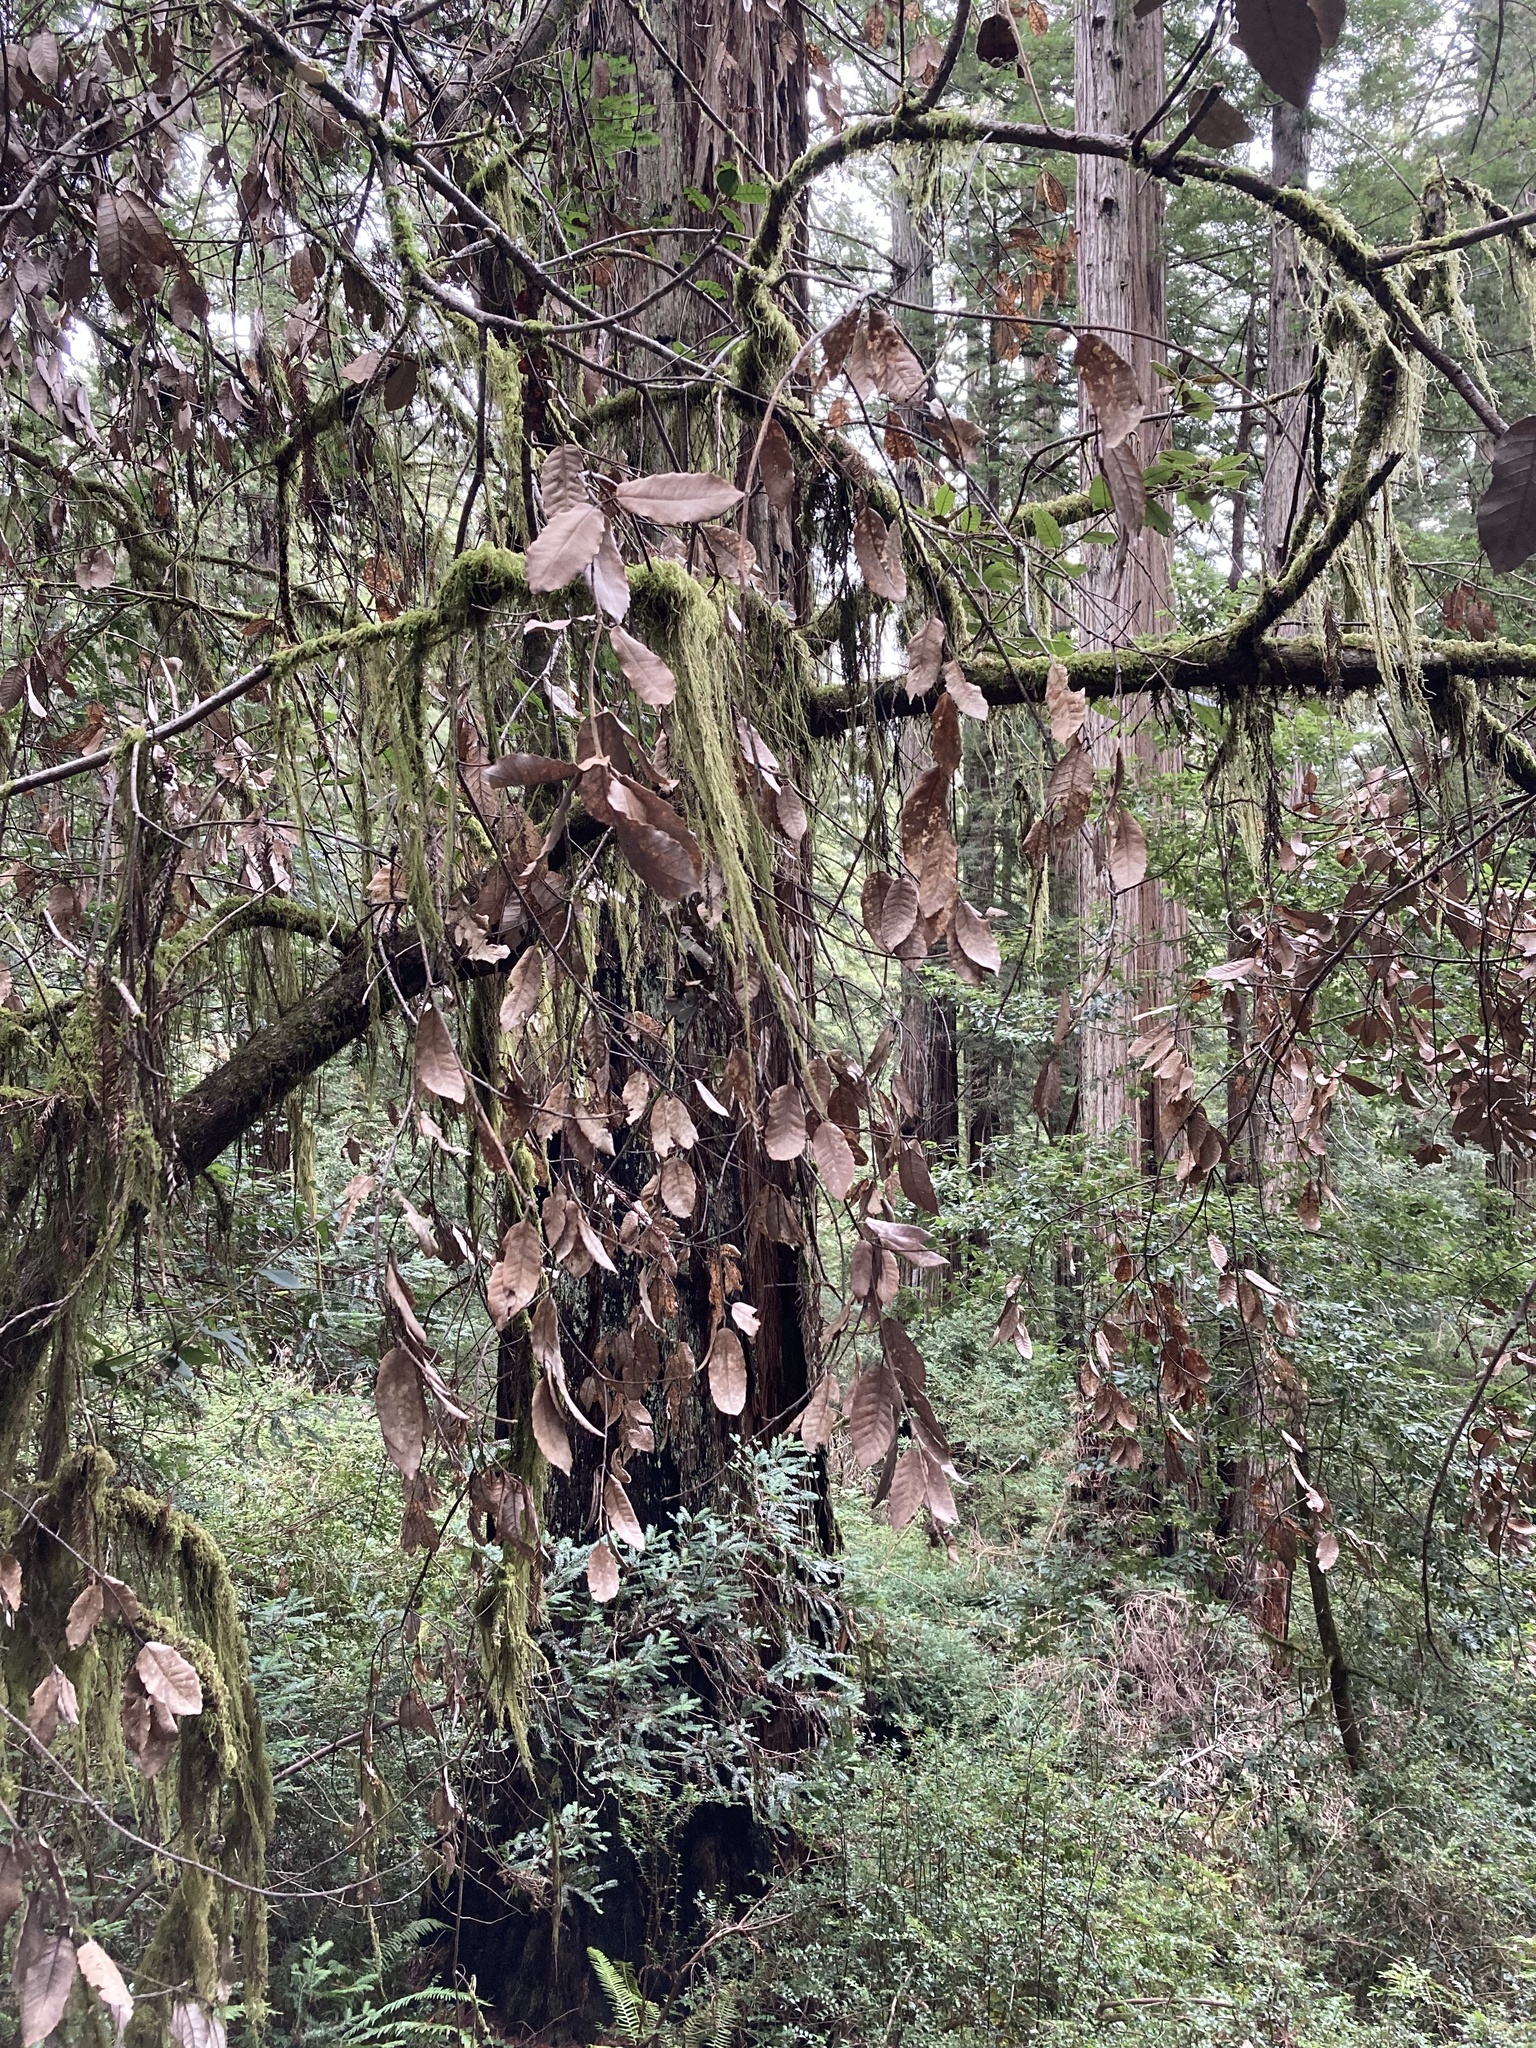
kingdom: Chromista
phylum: Oomycota
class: Peronosporea
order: Peronosporales
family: Peronosporaceae
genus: Phytophthora
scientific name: Phytophthora ramorum
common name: Sudden oak death
